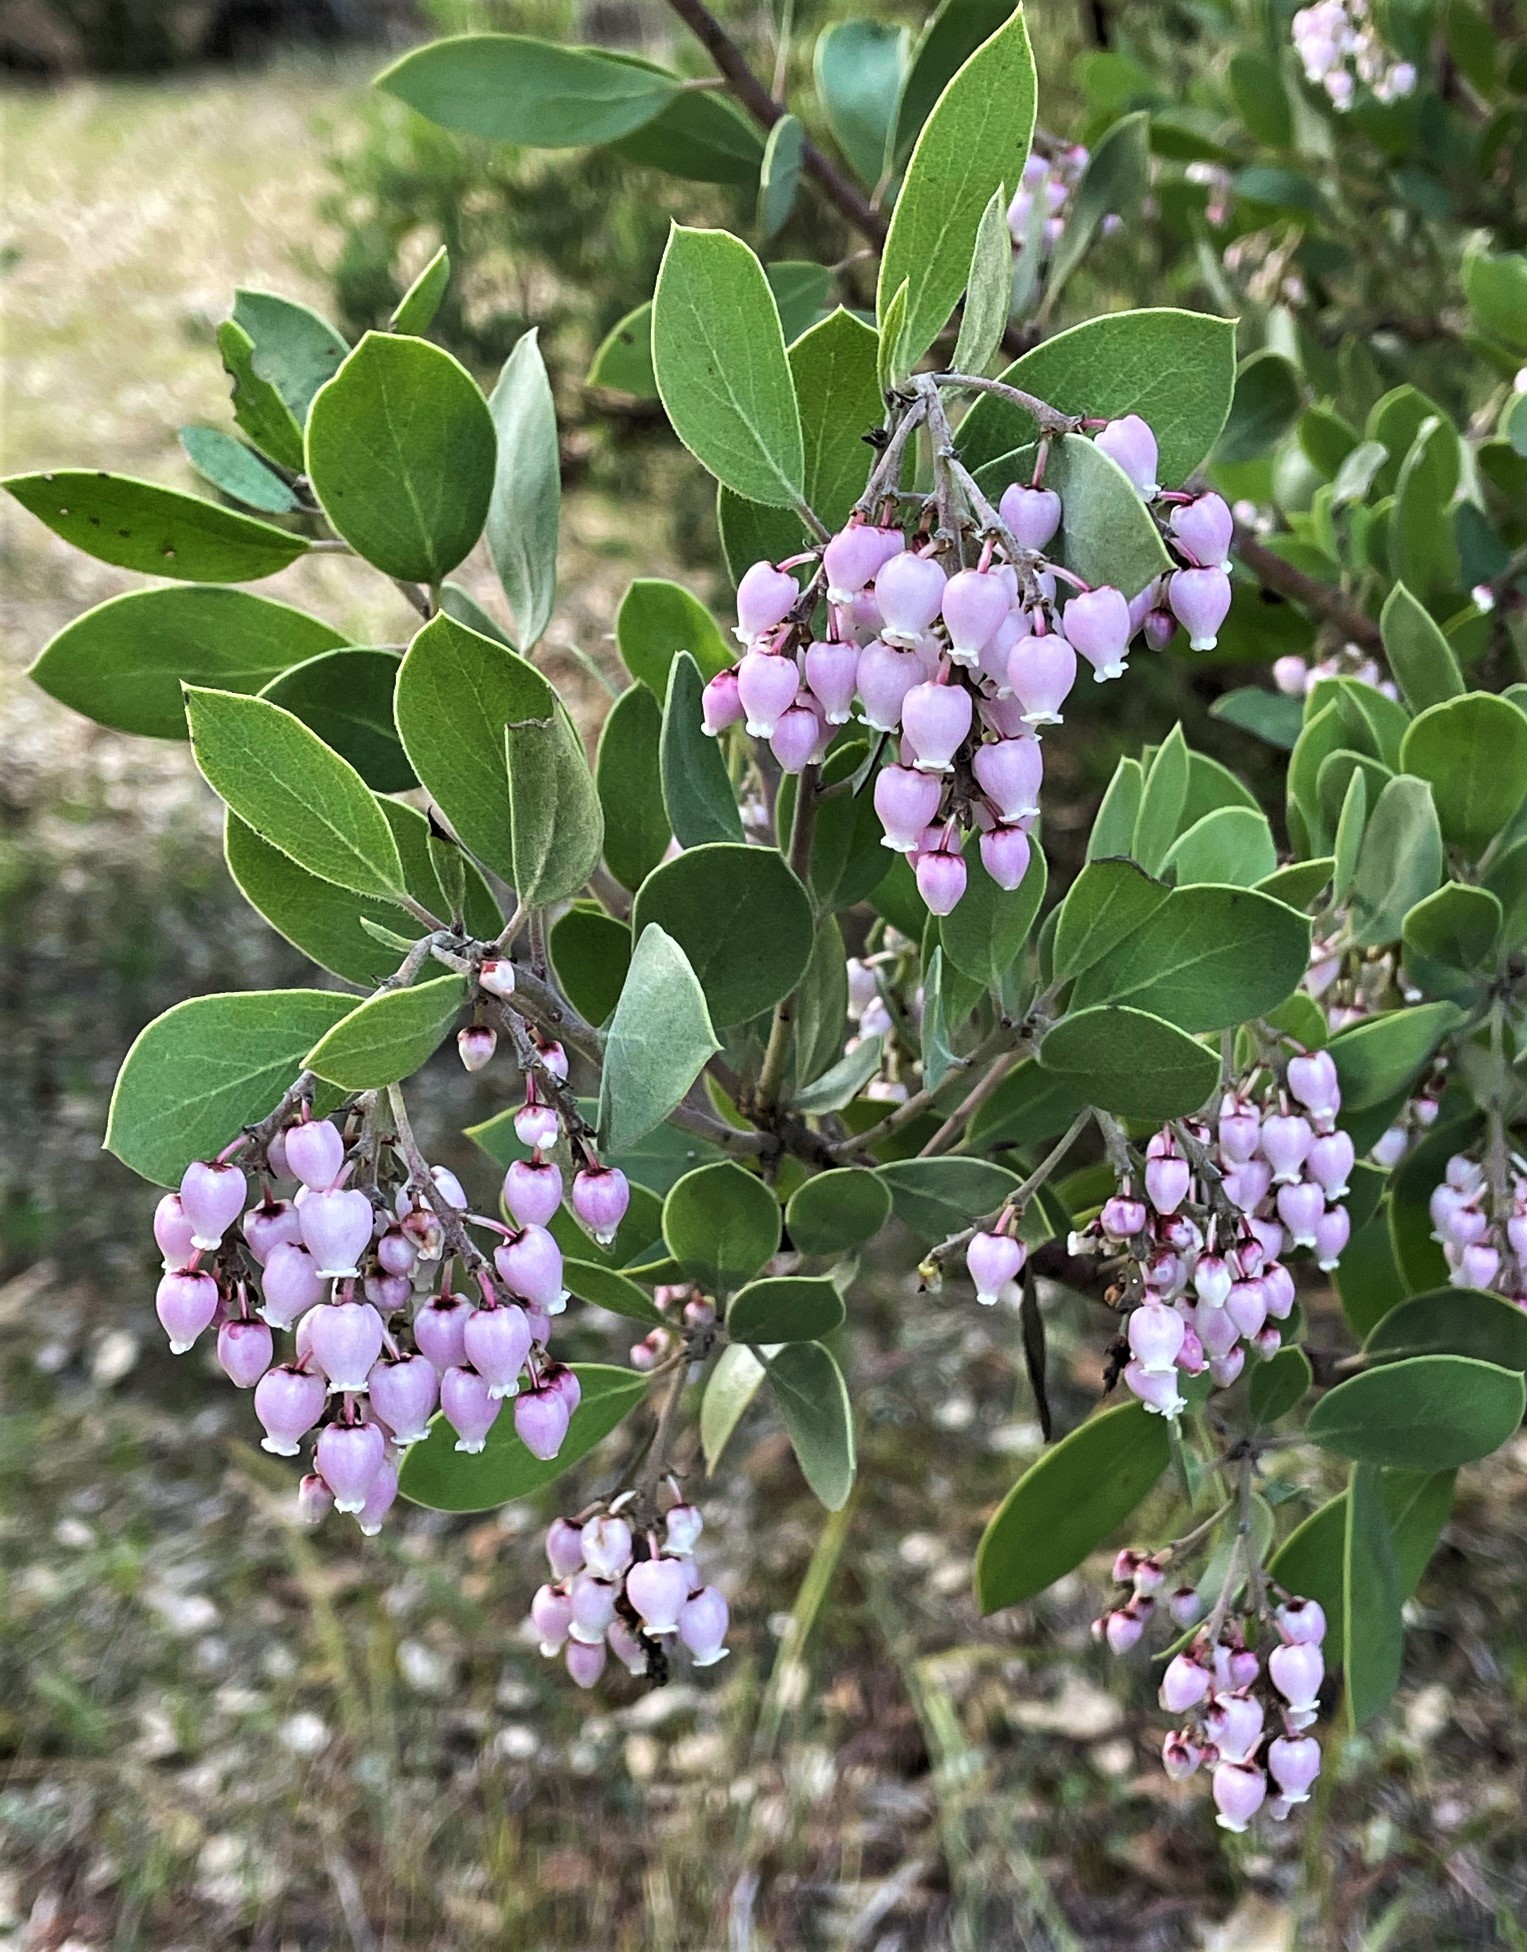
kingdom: Plantae
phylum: Tracheophyta
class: Magnoliopsida
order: Ericales
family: Ericaceae
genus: Arctostaphylos
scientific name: Arctostaphylos manzanita
